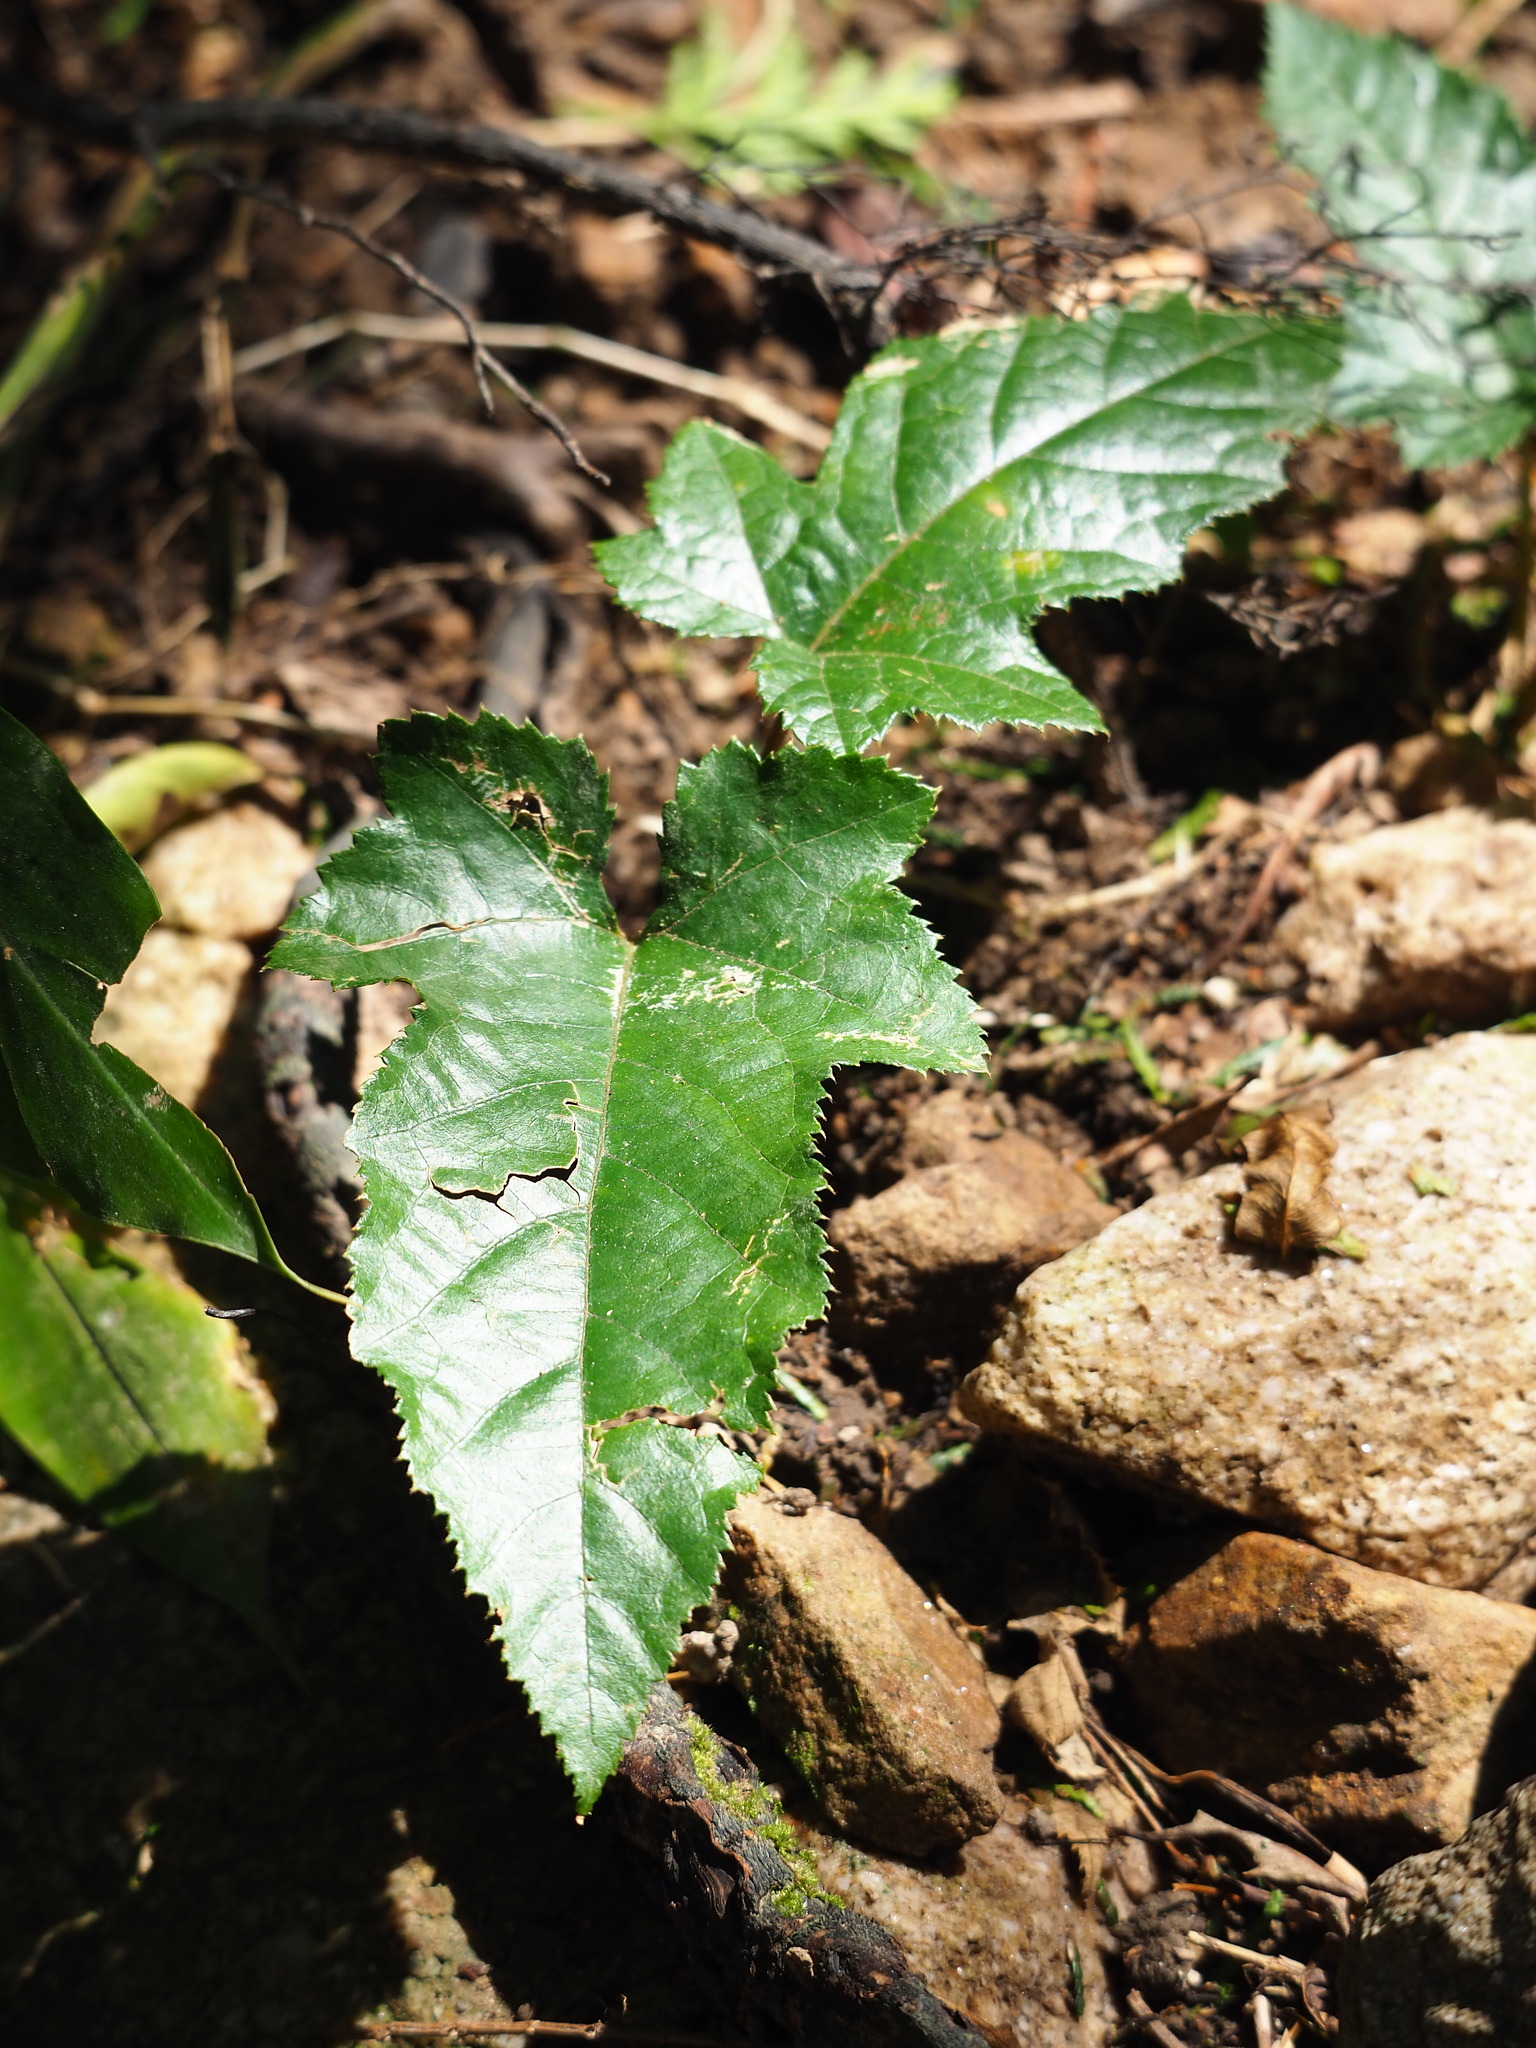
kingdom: Plantae
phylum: Tracheophyta
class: Magnoliopsida
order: Rosales
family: Rosaceae
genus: Rubus
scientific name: Rubus reflexus
